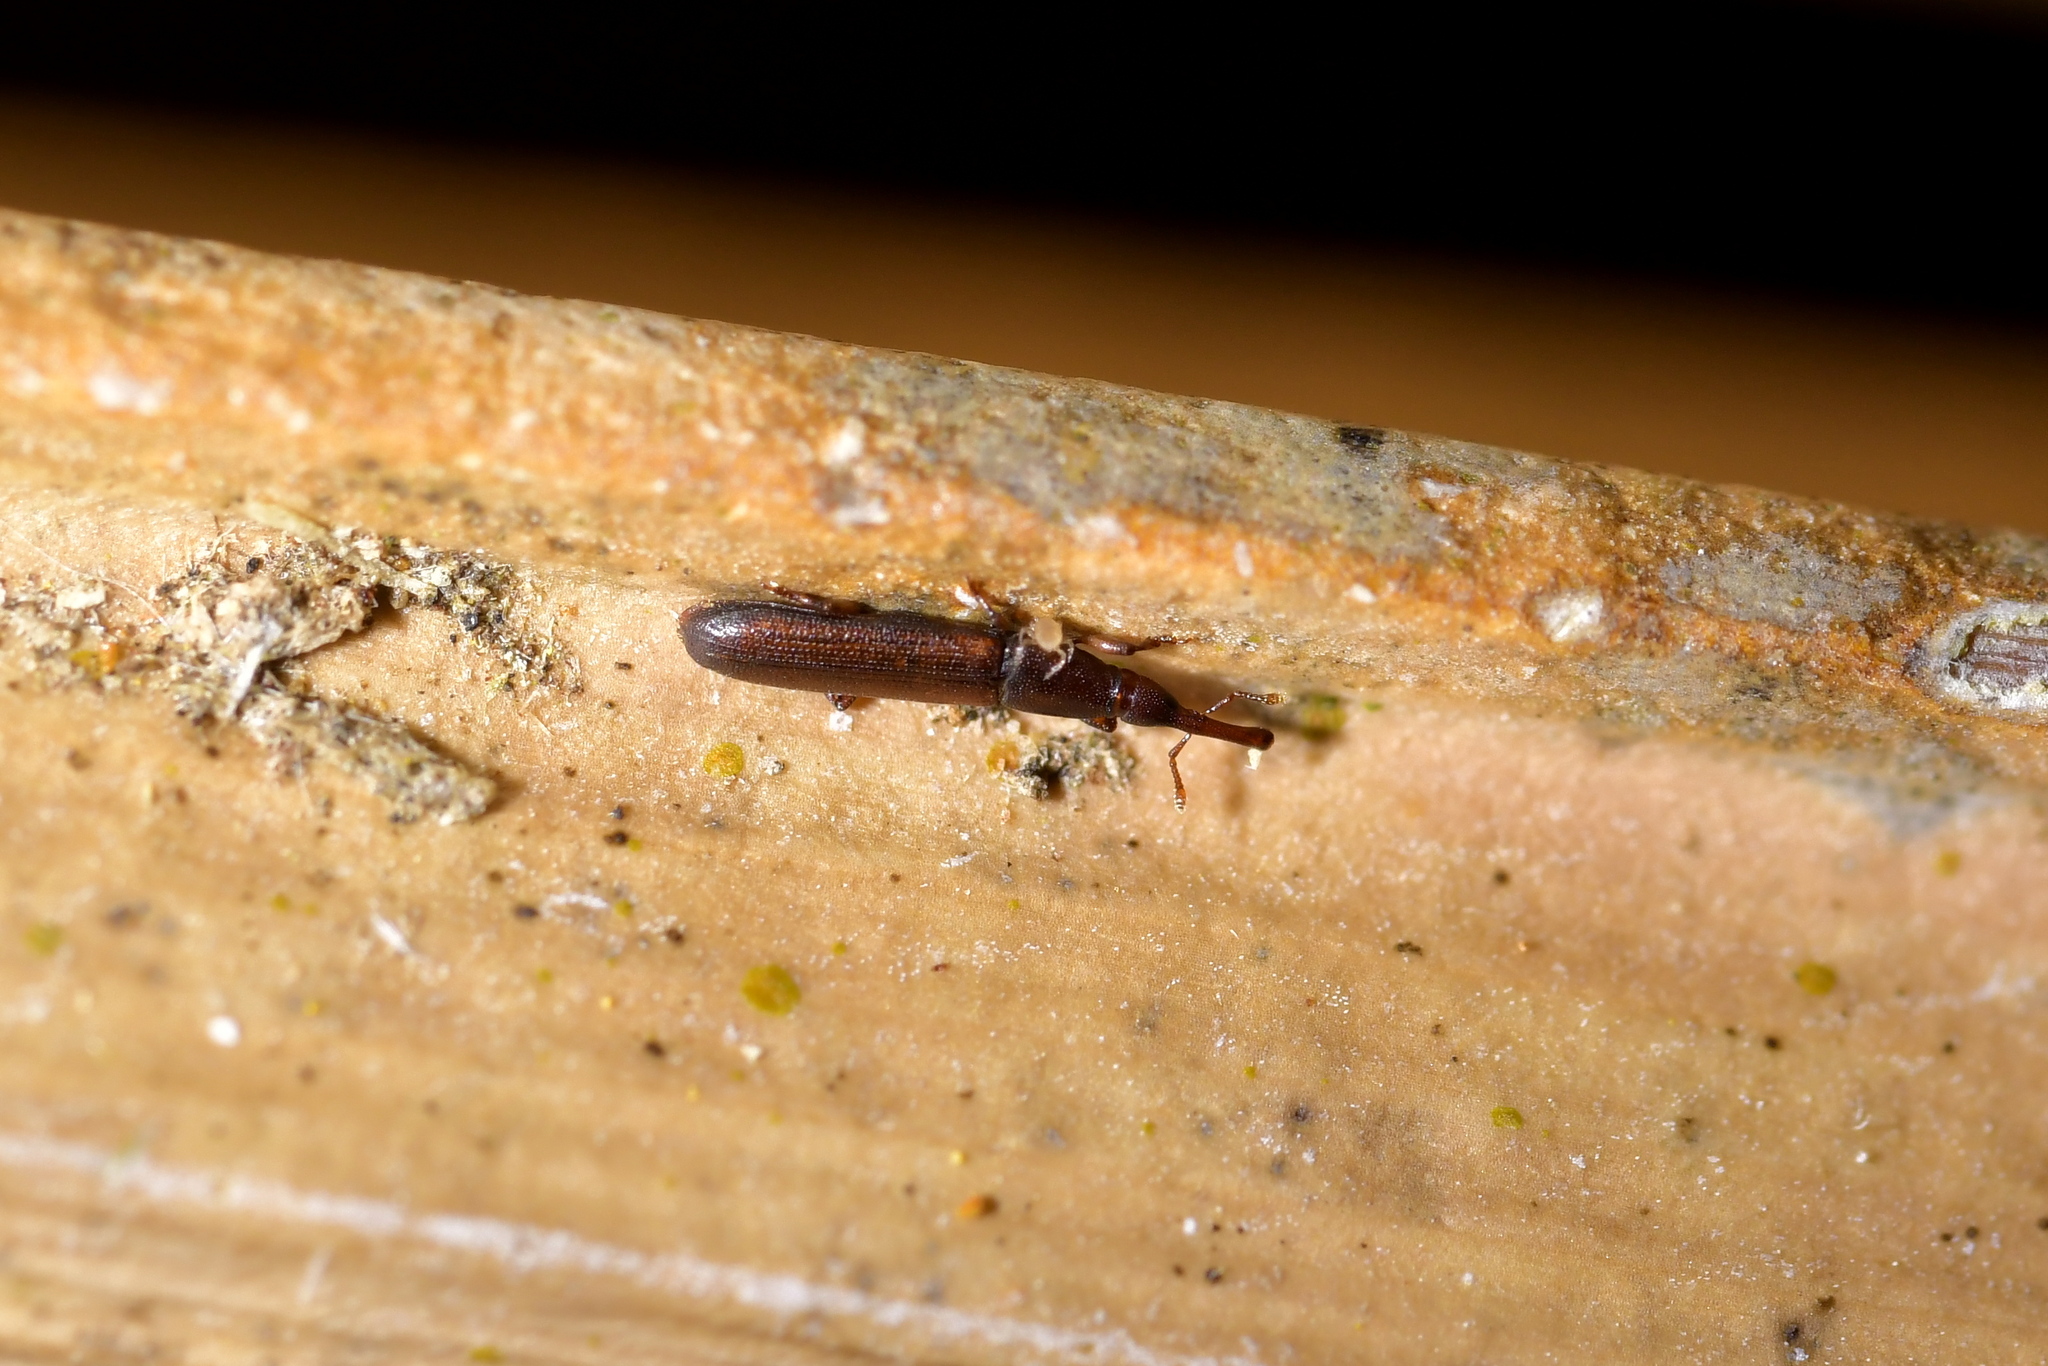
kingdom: Animalia
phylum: Arthropoda
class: Insecta
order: Coleoptera
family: Curculionidae
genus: Stenotrupis
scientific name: Stenotrupis wollastoniana
